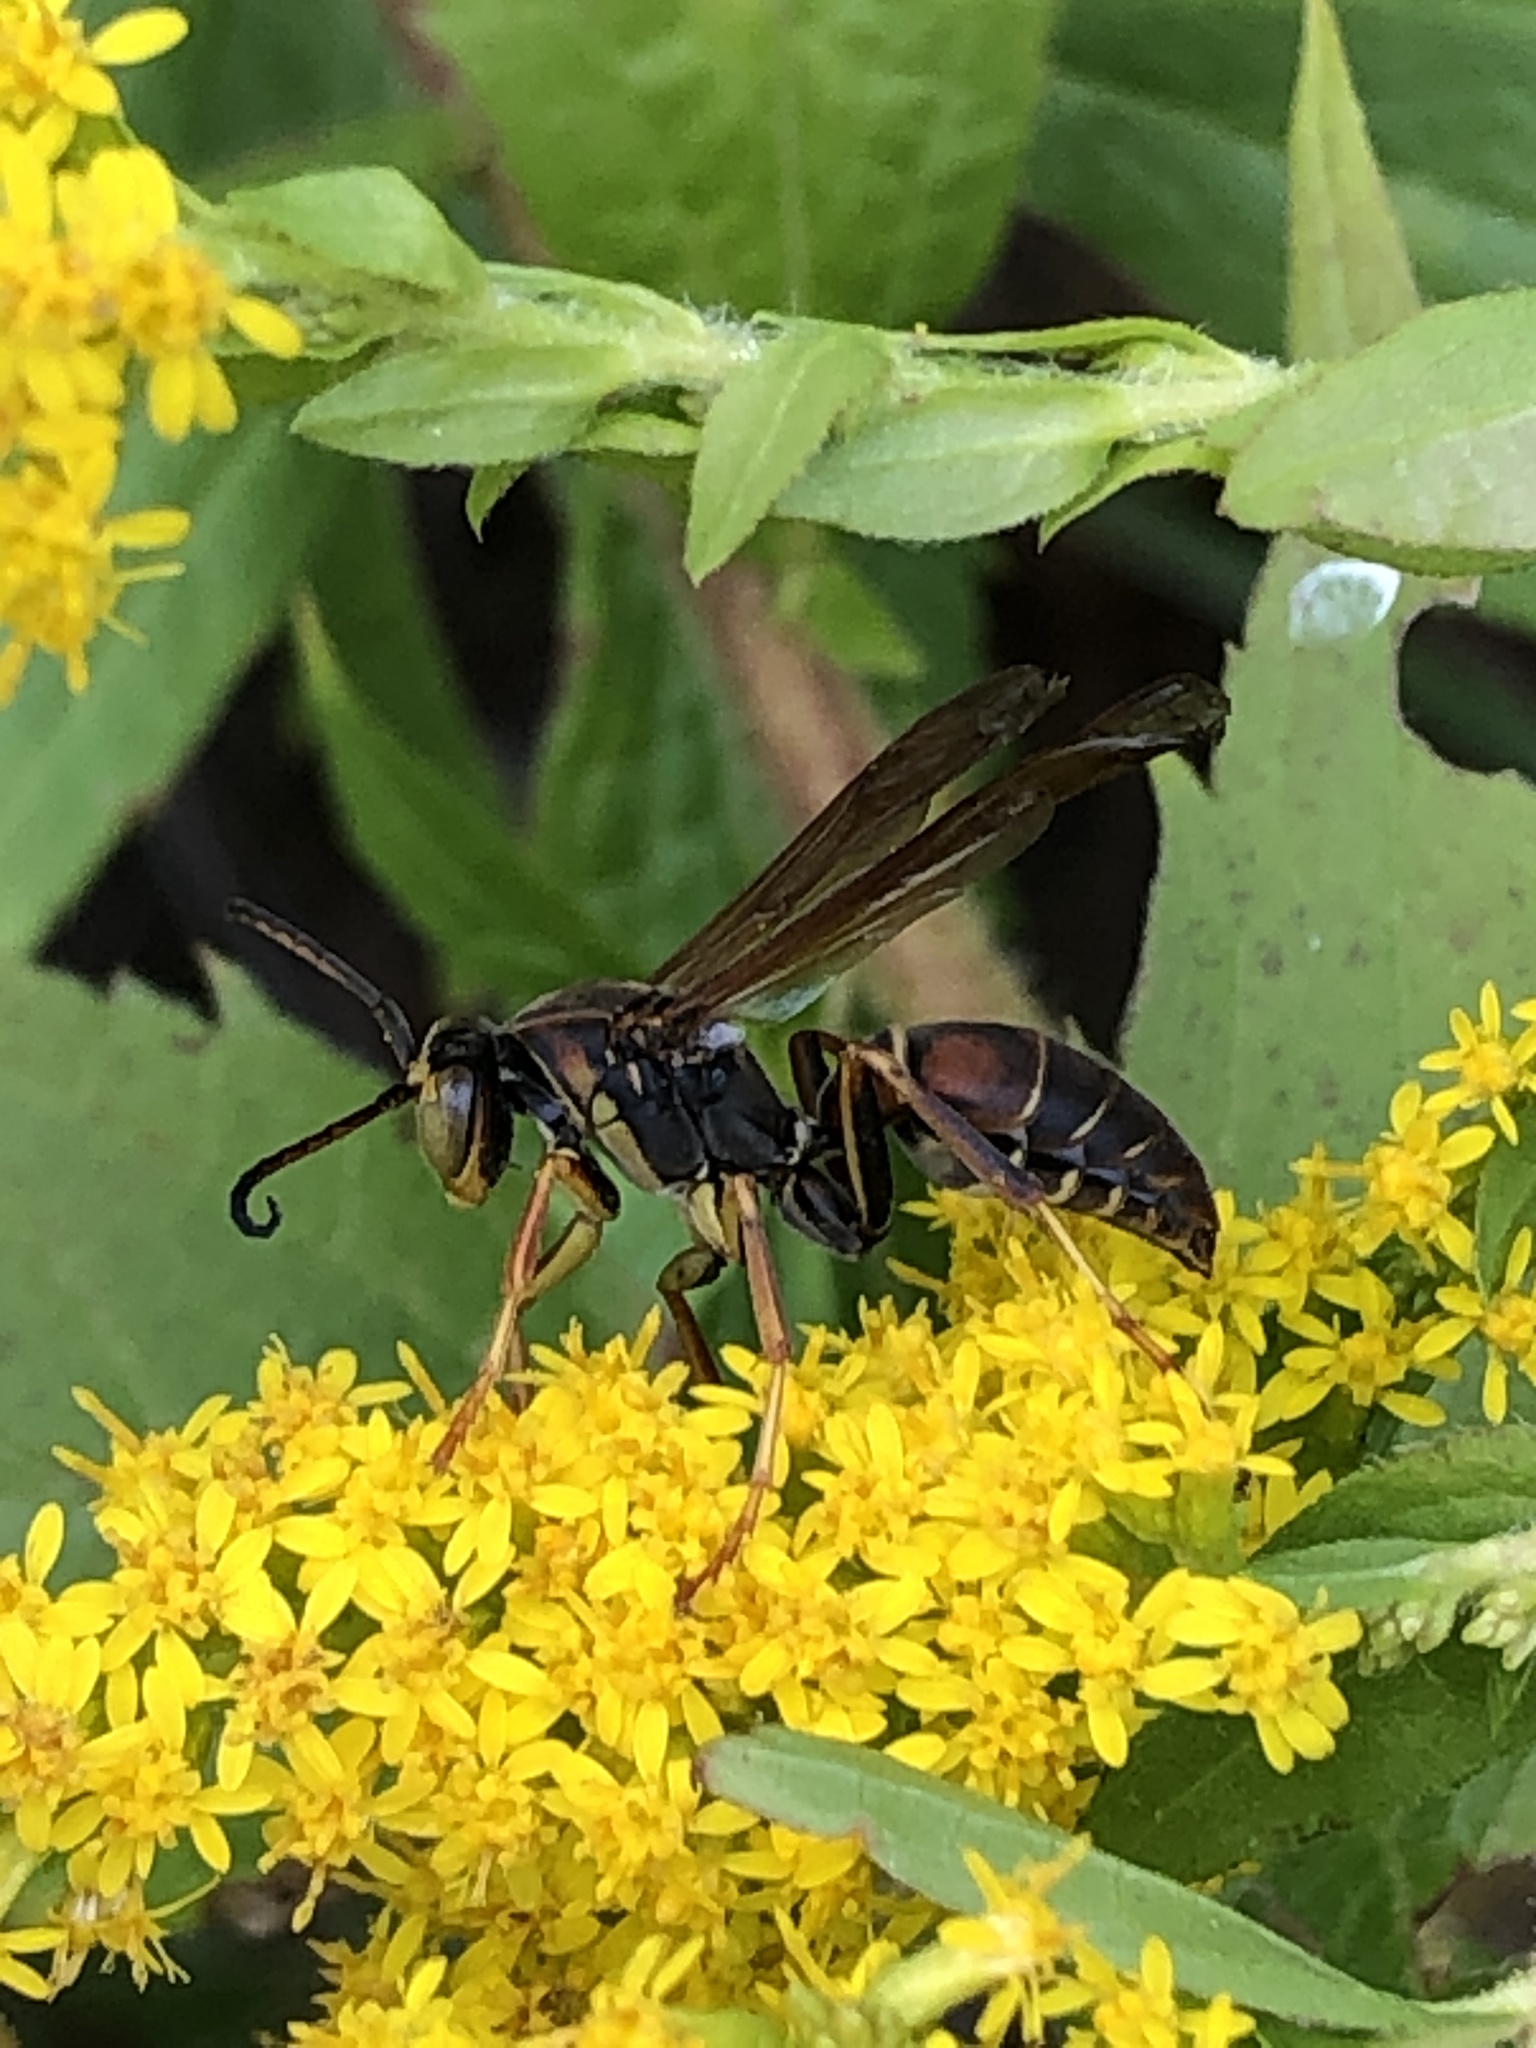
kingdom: Animalia
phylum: Arthropoda
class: Insecta
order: Hymenoptera
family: Eumenidae
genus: Polistes
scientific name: Polistes fuscatus
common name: Dark paper wasp
